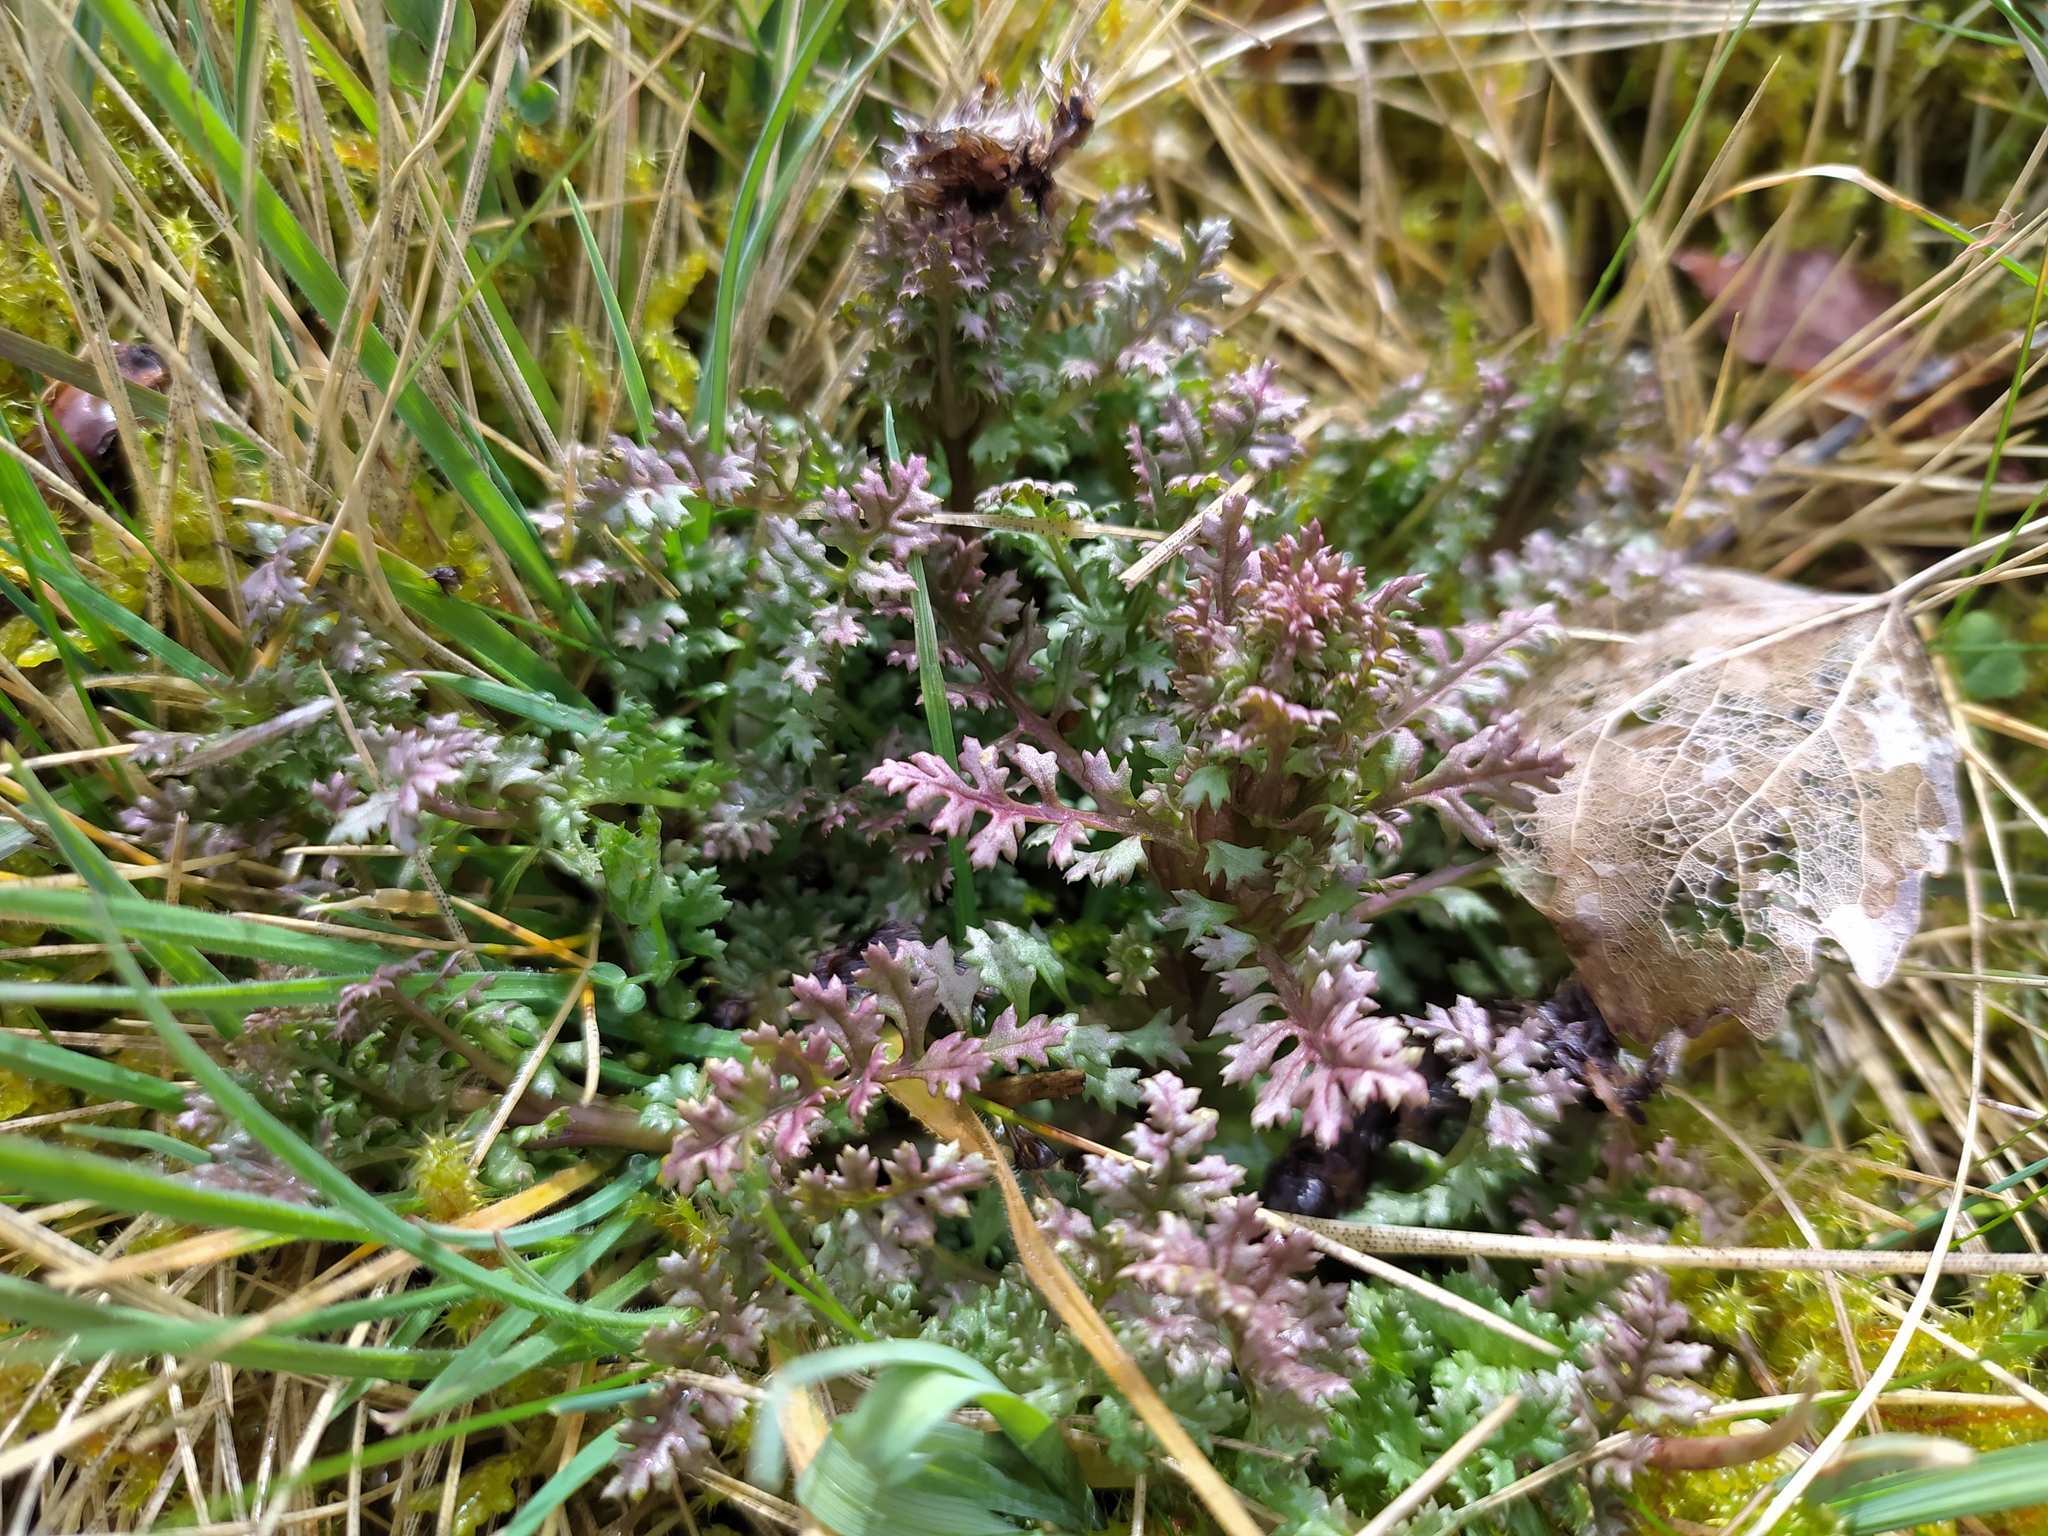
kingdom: Plantae
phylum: Tracheophyta
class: Magnoliopsida
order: Lamiales
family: Orobanchaceae
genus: Pedicularis
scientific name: Pedicularis sylvatica
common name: Lousewort
